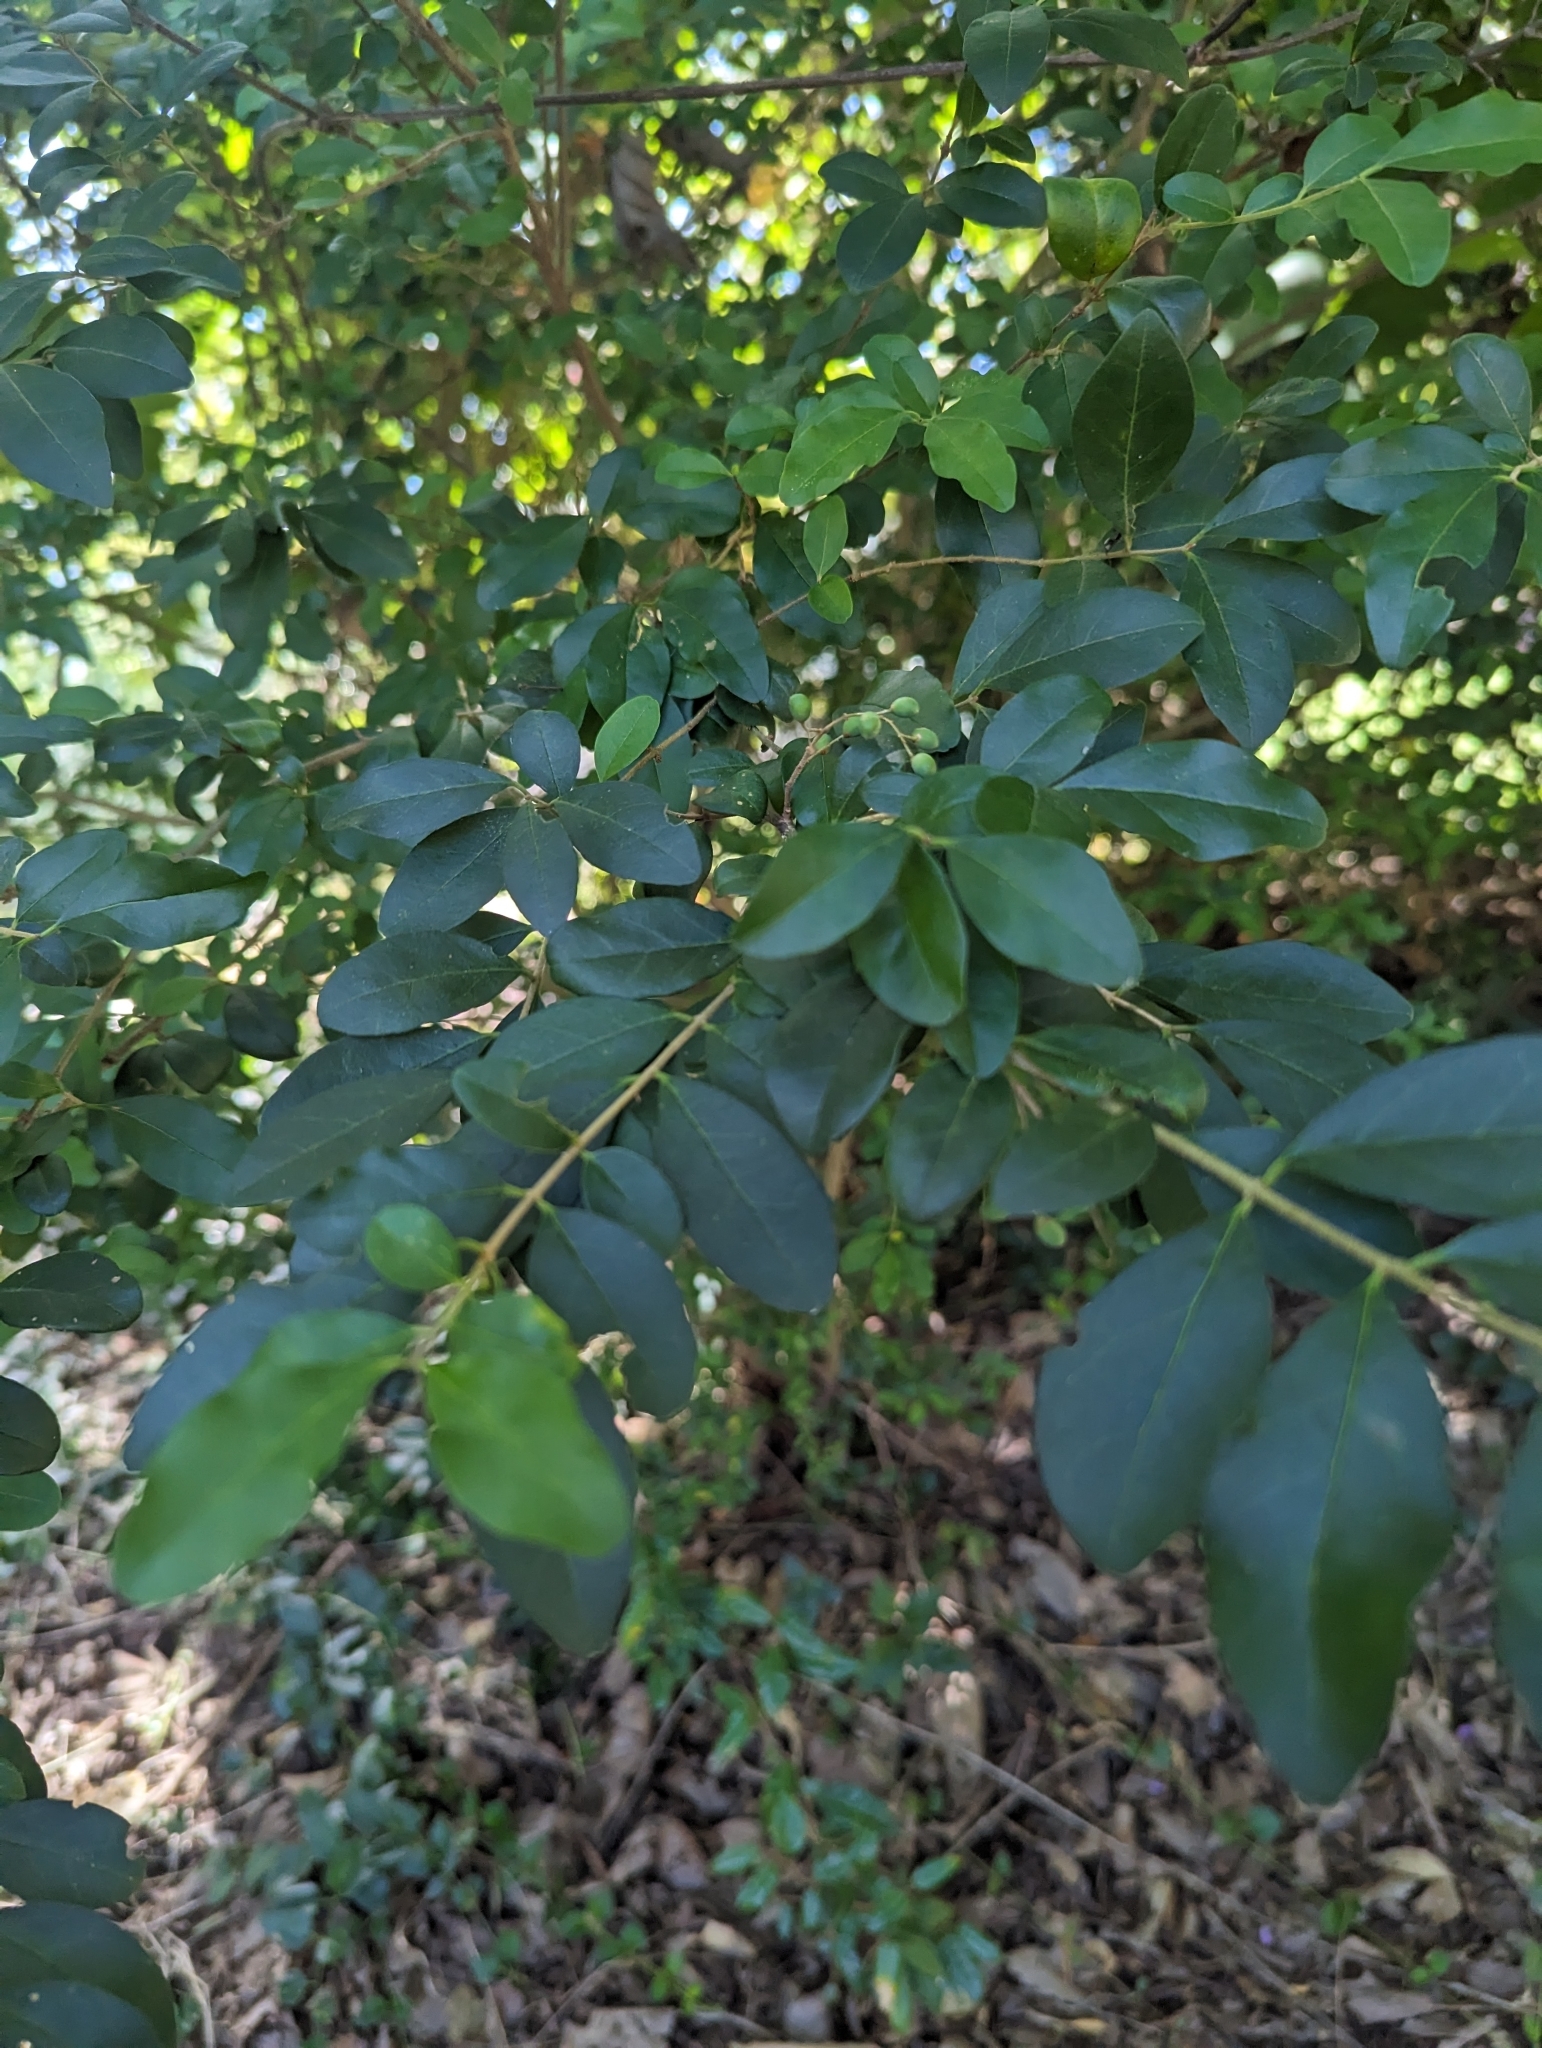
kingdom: Plantae
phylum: Tracheophyta
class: Magnoliopsida
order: Lamiales
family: Oleaceae
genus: Ligustrum
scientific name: Ligustrum sinense
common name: Chinese privet
